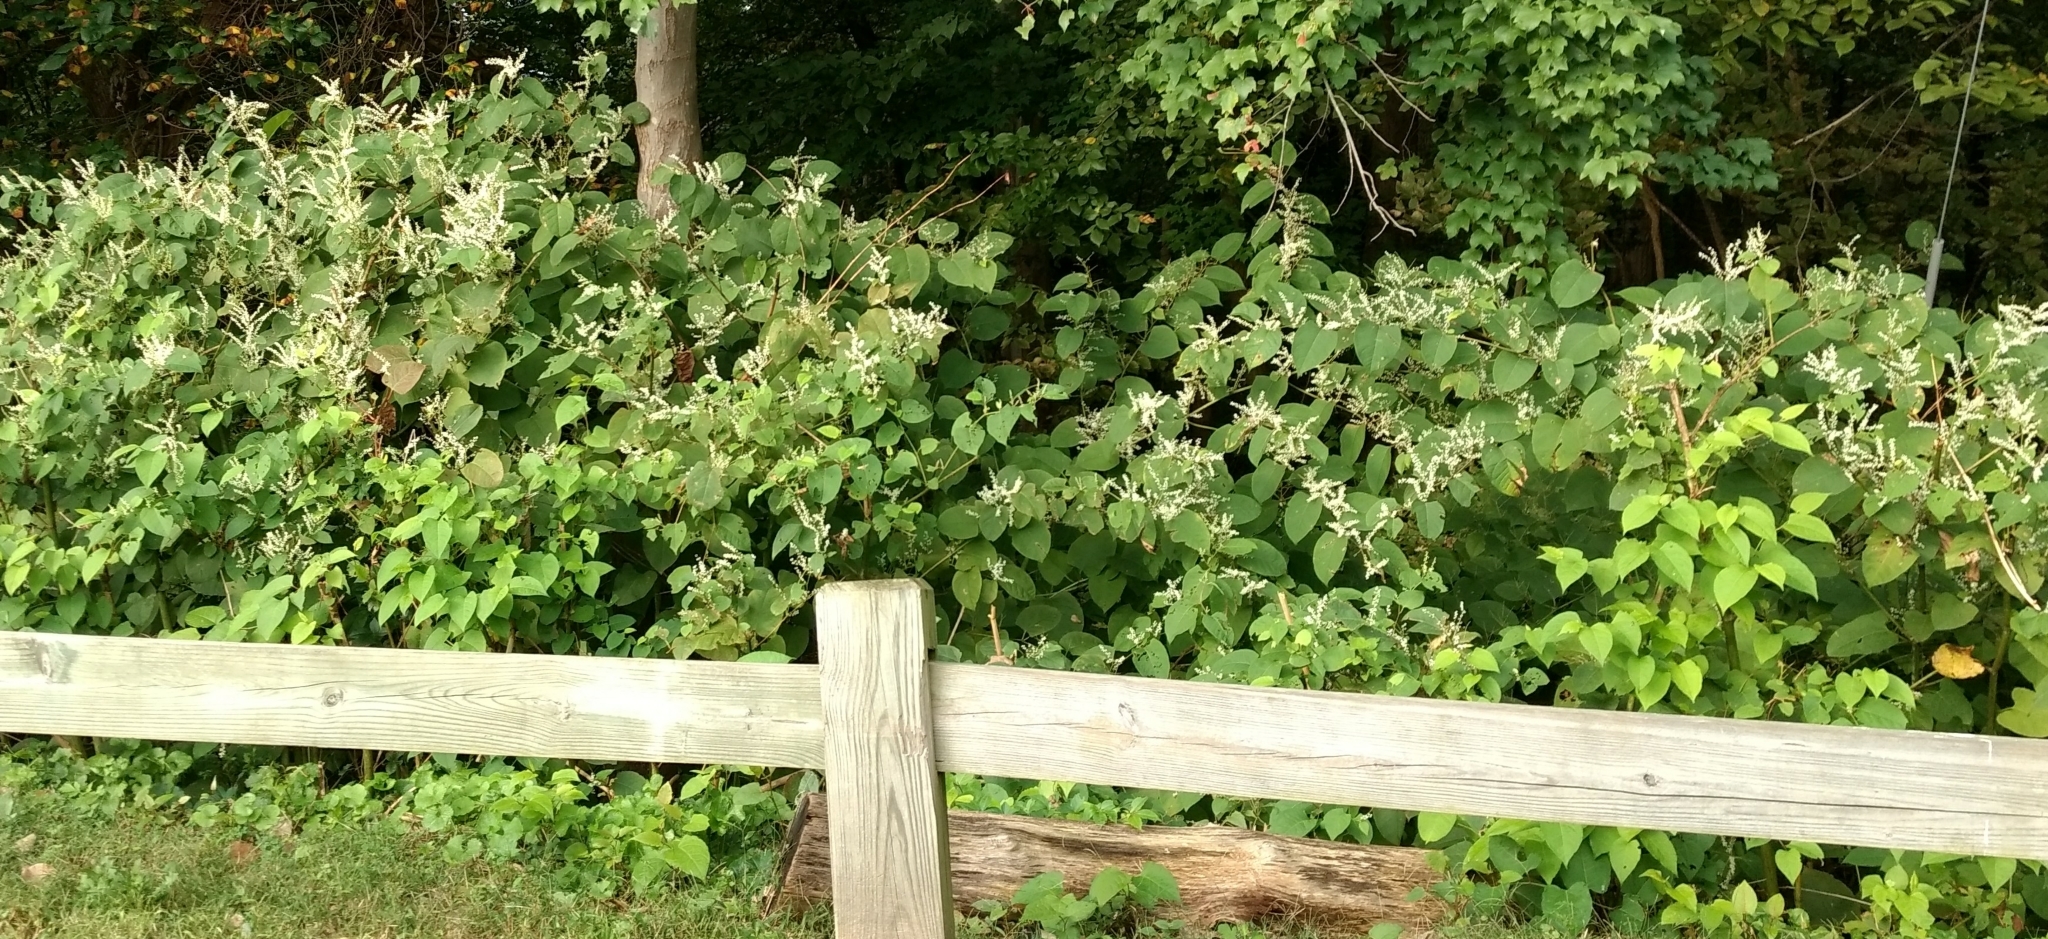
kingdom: Plantae
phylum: Tracheophyta
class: Magnoliopsida
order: Caryophyllales
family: Polygonaceae
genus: Reynoutria
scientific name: Reynoutria japonica
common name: Japanese knotweed
